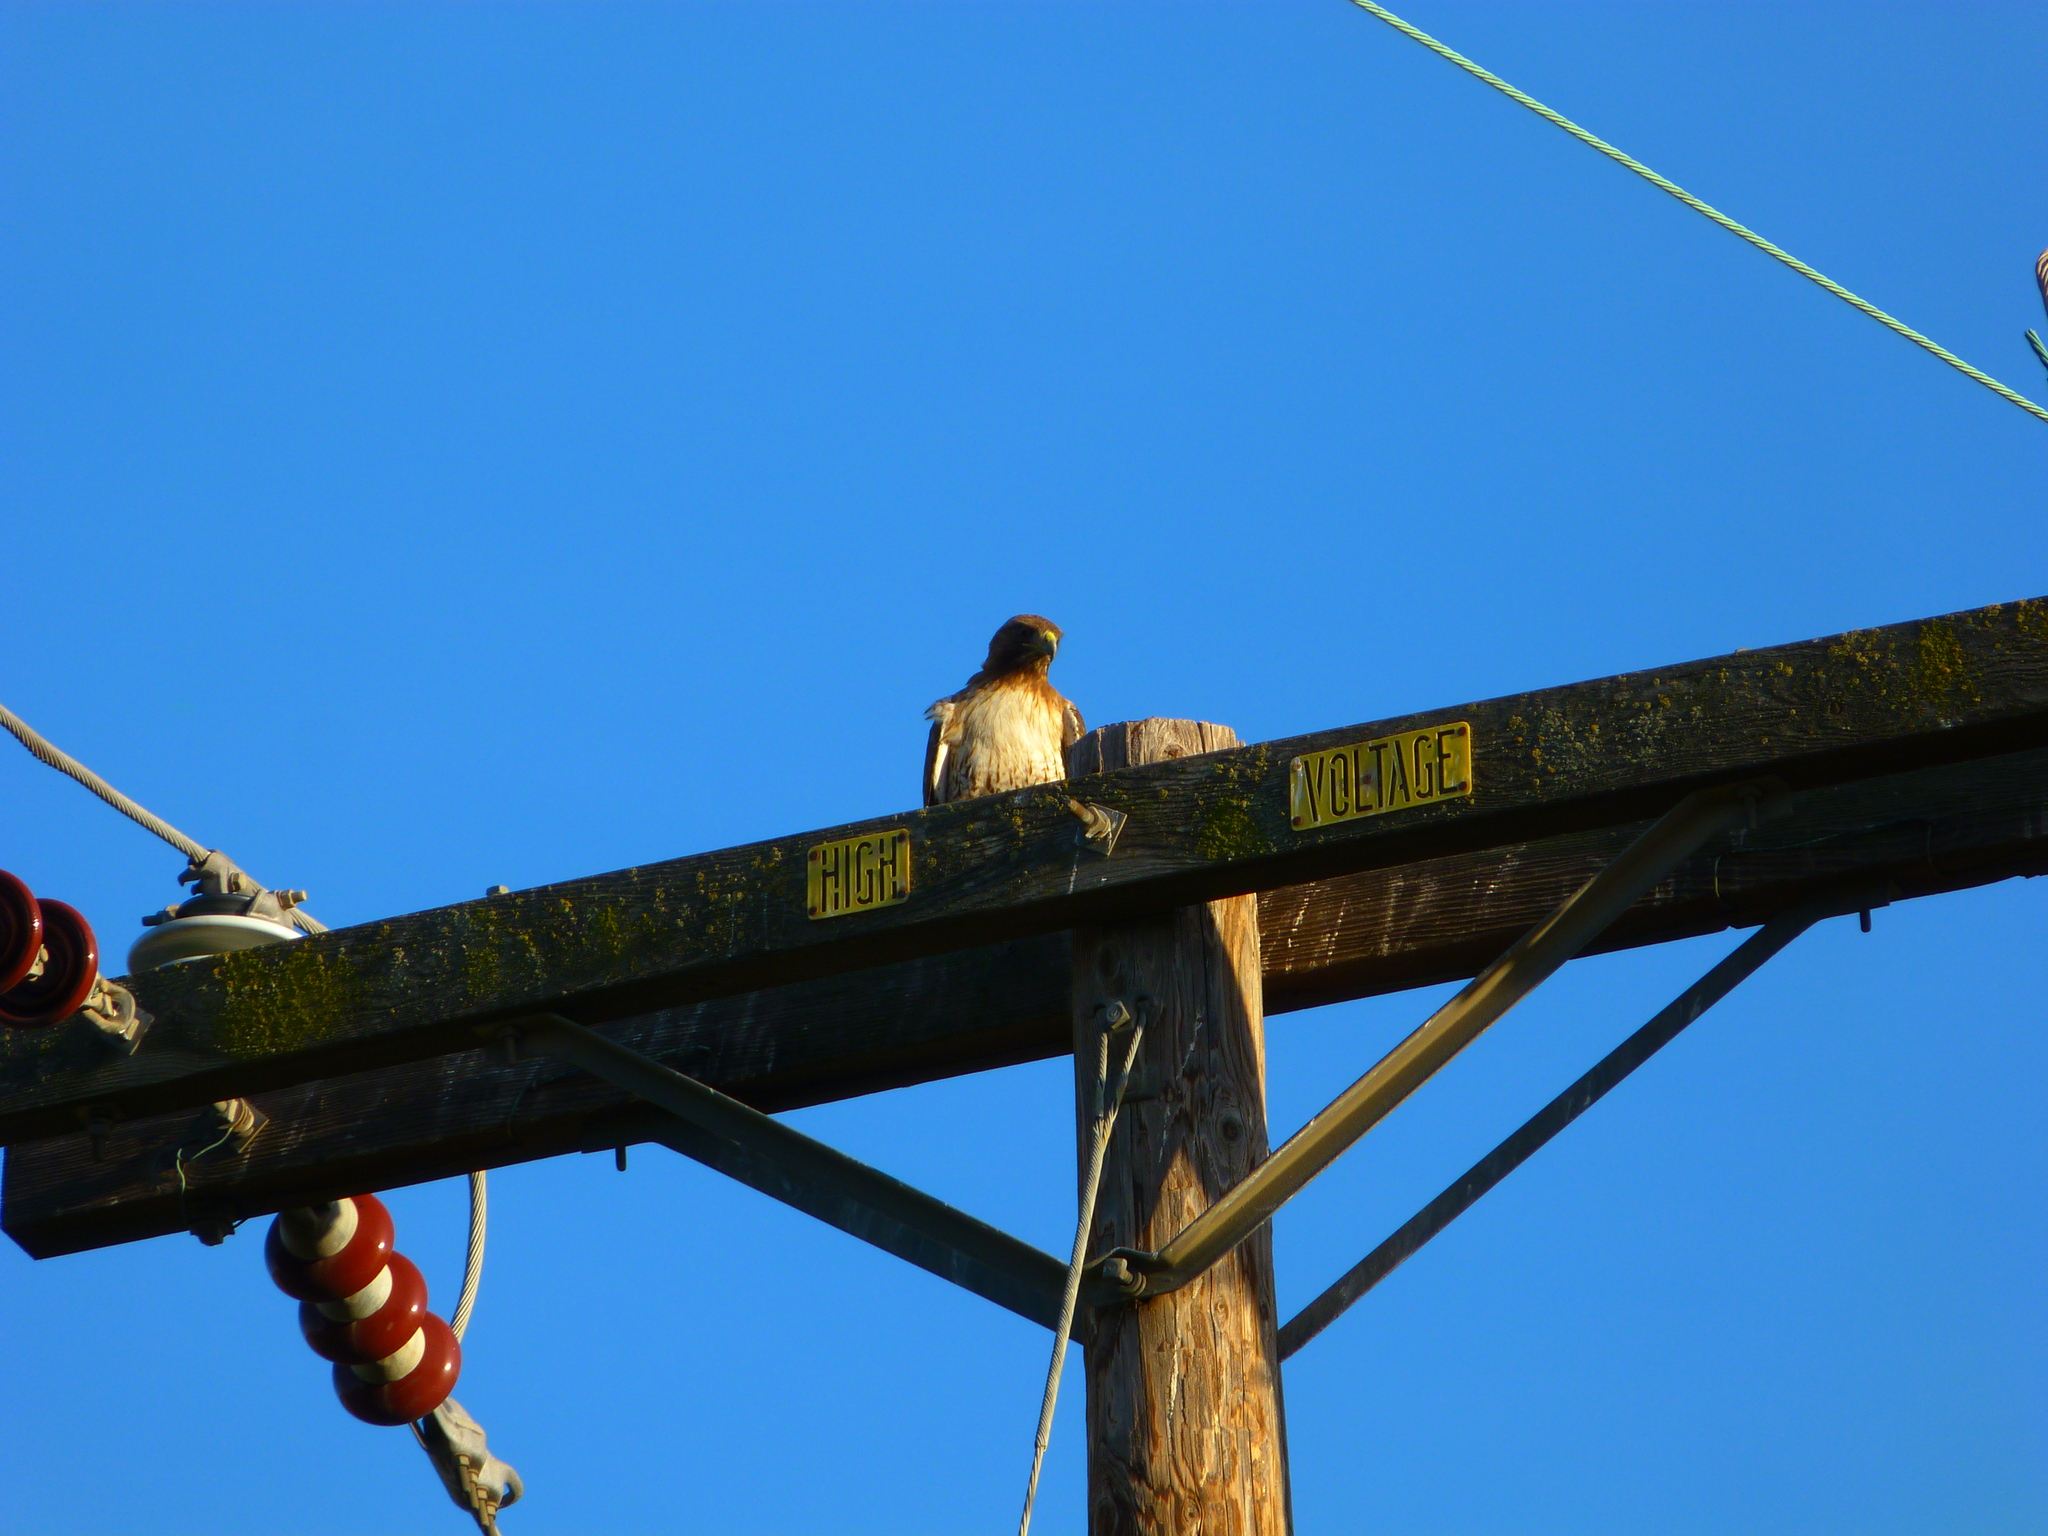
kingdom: Animalia
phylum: Chordata
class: Aves
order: Accipitriformes
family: Accipitridae
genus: Buteo
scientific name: Buteo jamaicensis
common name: Red-tailed hawk
